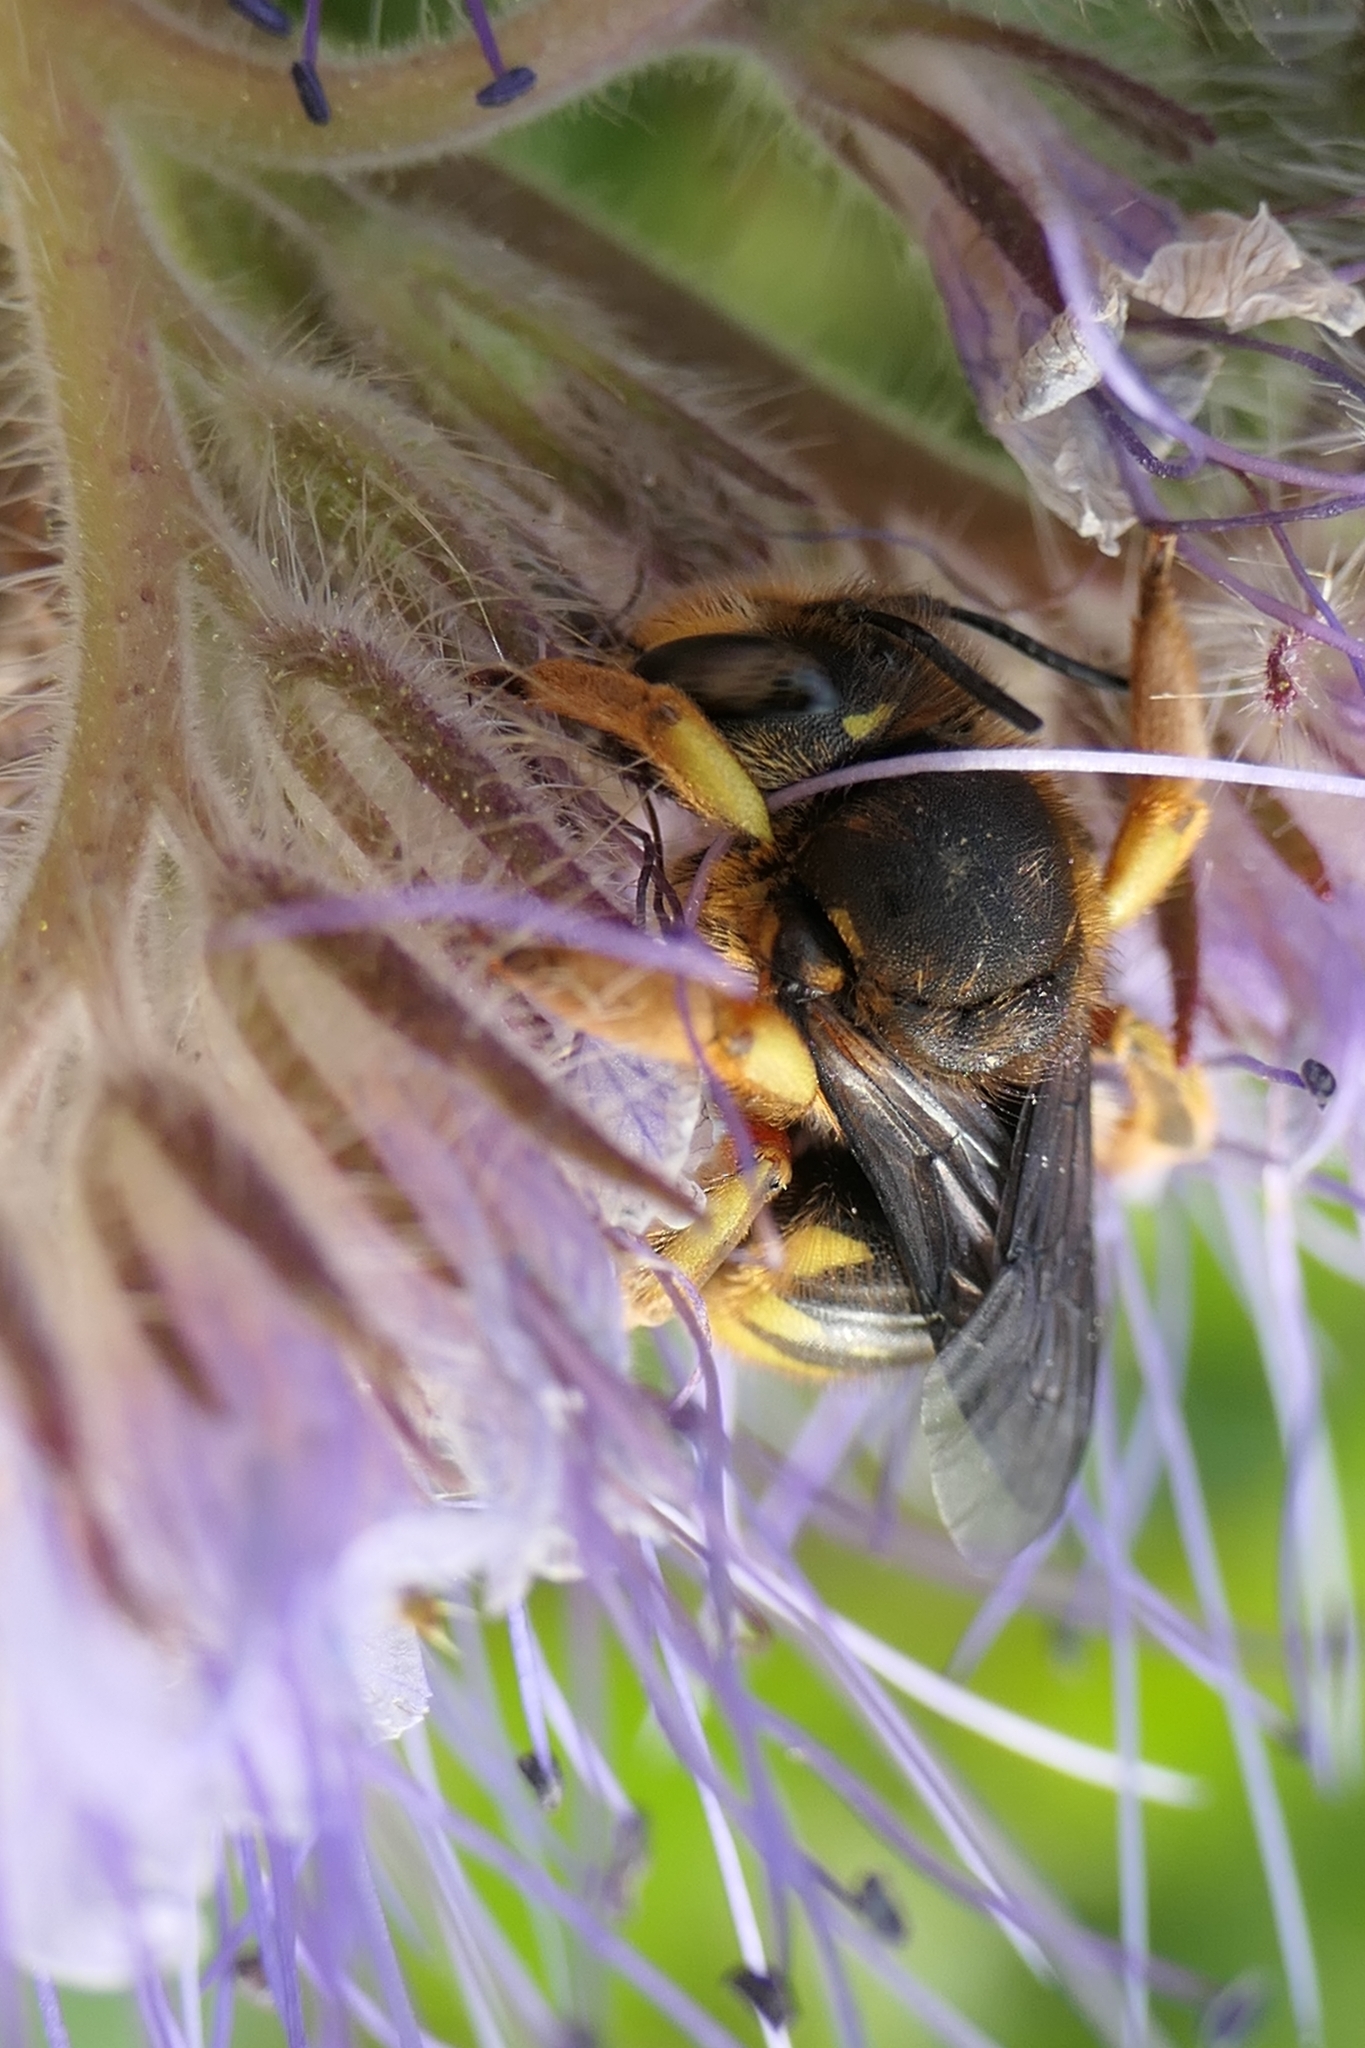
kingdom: Animalia
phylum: Arthropoda
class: Insecta
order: Hymenoptera
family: Megachilidae
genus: Anthidium
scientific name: Anthidium manicatum
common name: Wool carder bee
